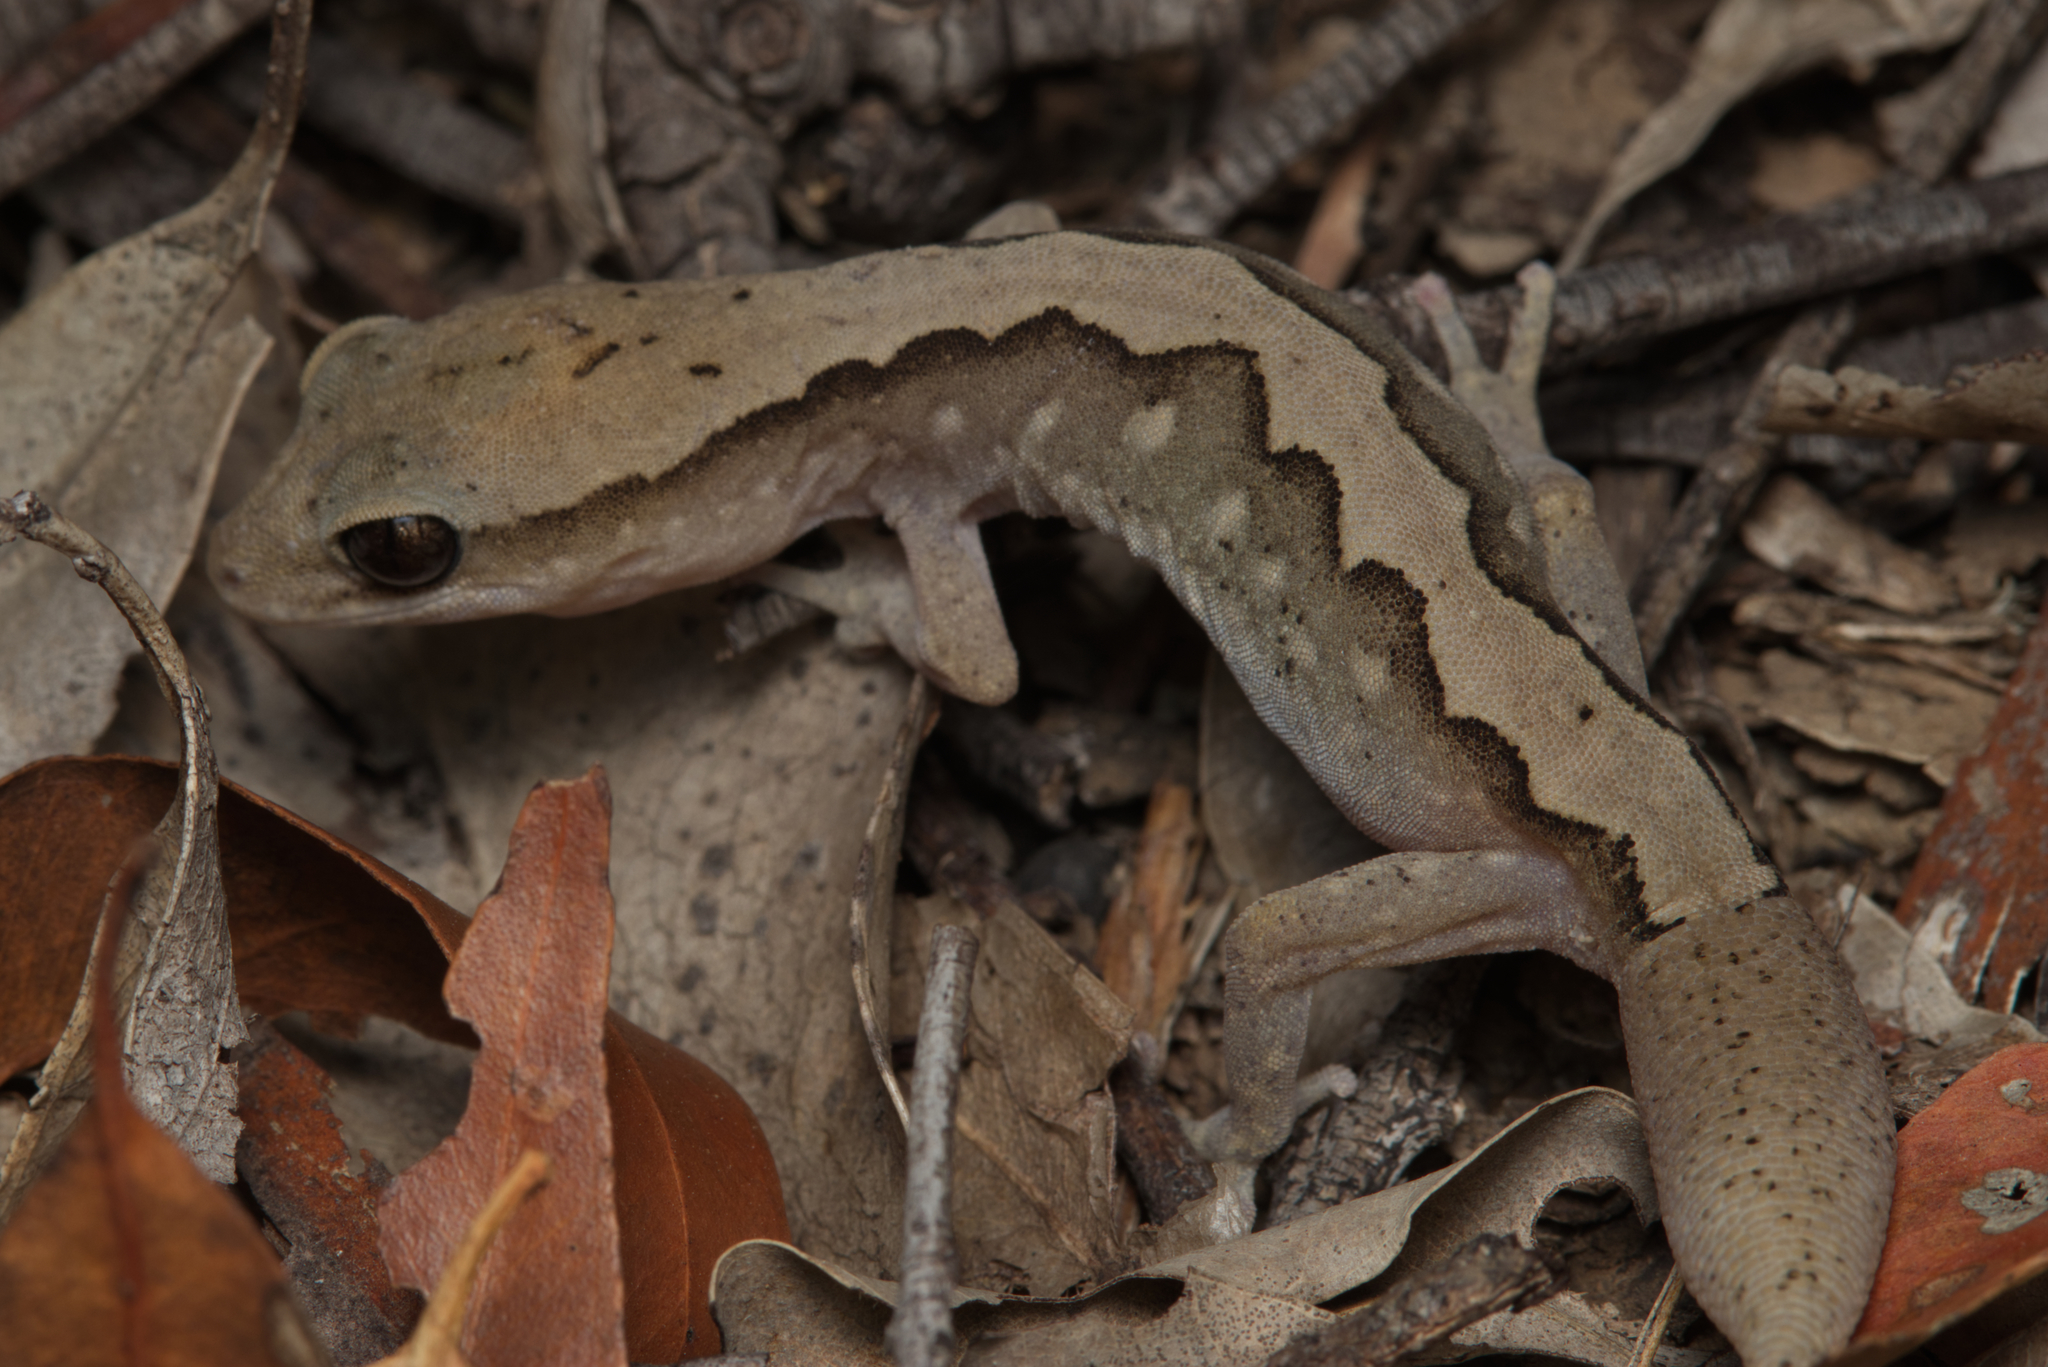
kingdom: Animalia
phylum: Chordata
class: Squamata
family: Diplodactylidae
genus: Diplodactylus
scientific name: Diplodactylus vittatus
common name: Eastern stone gecko
